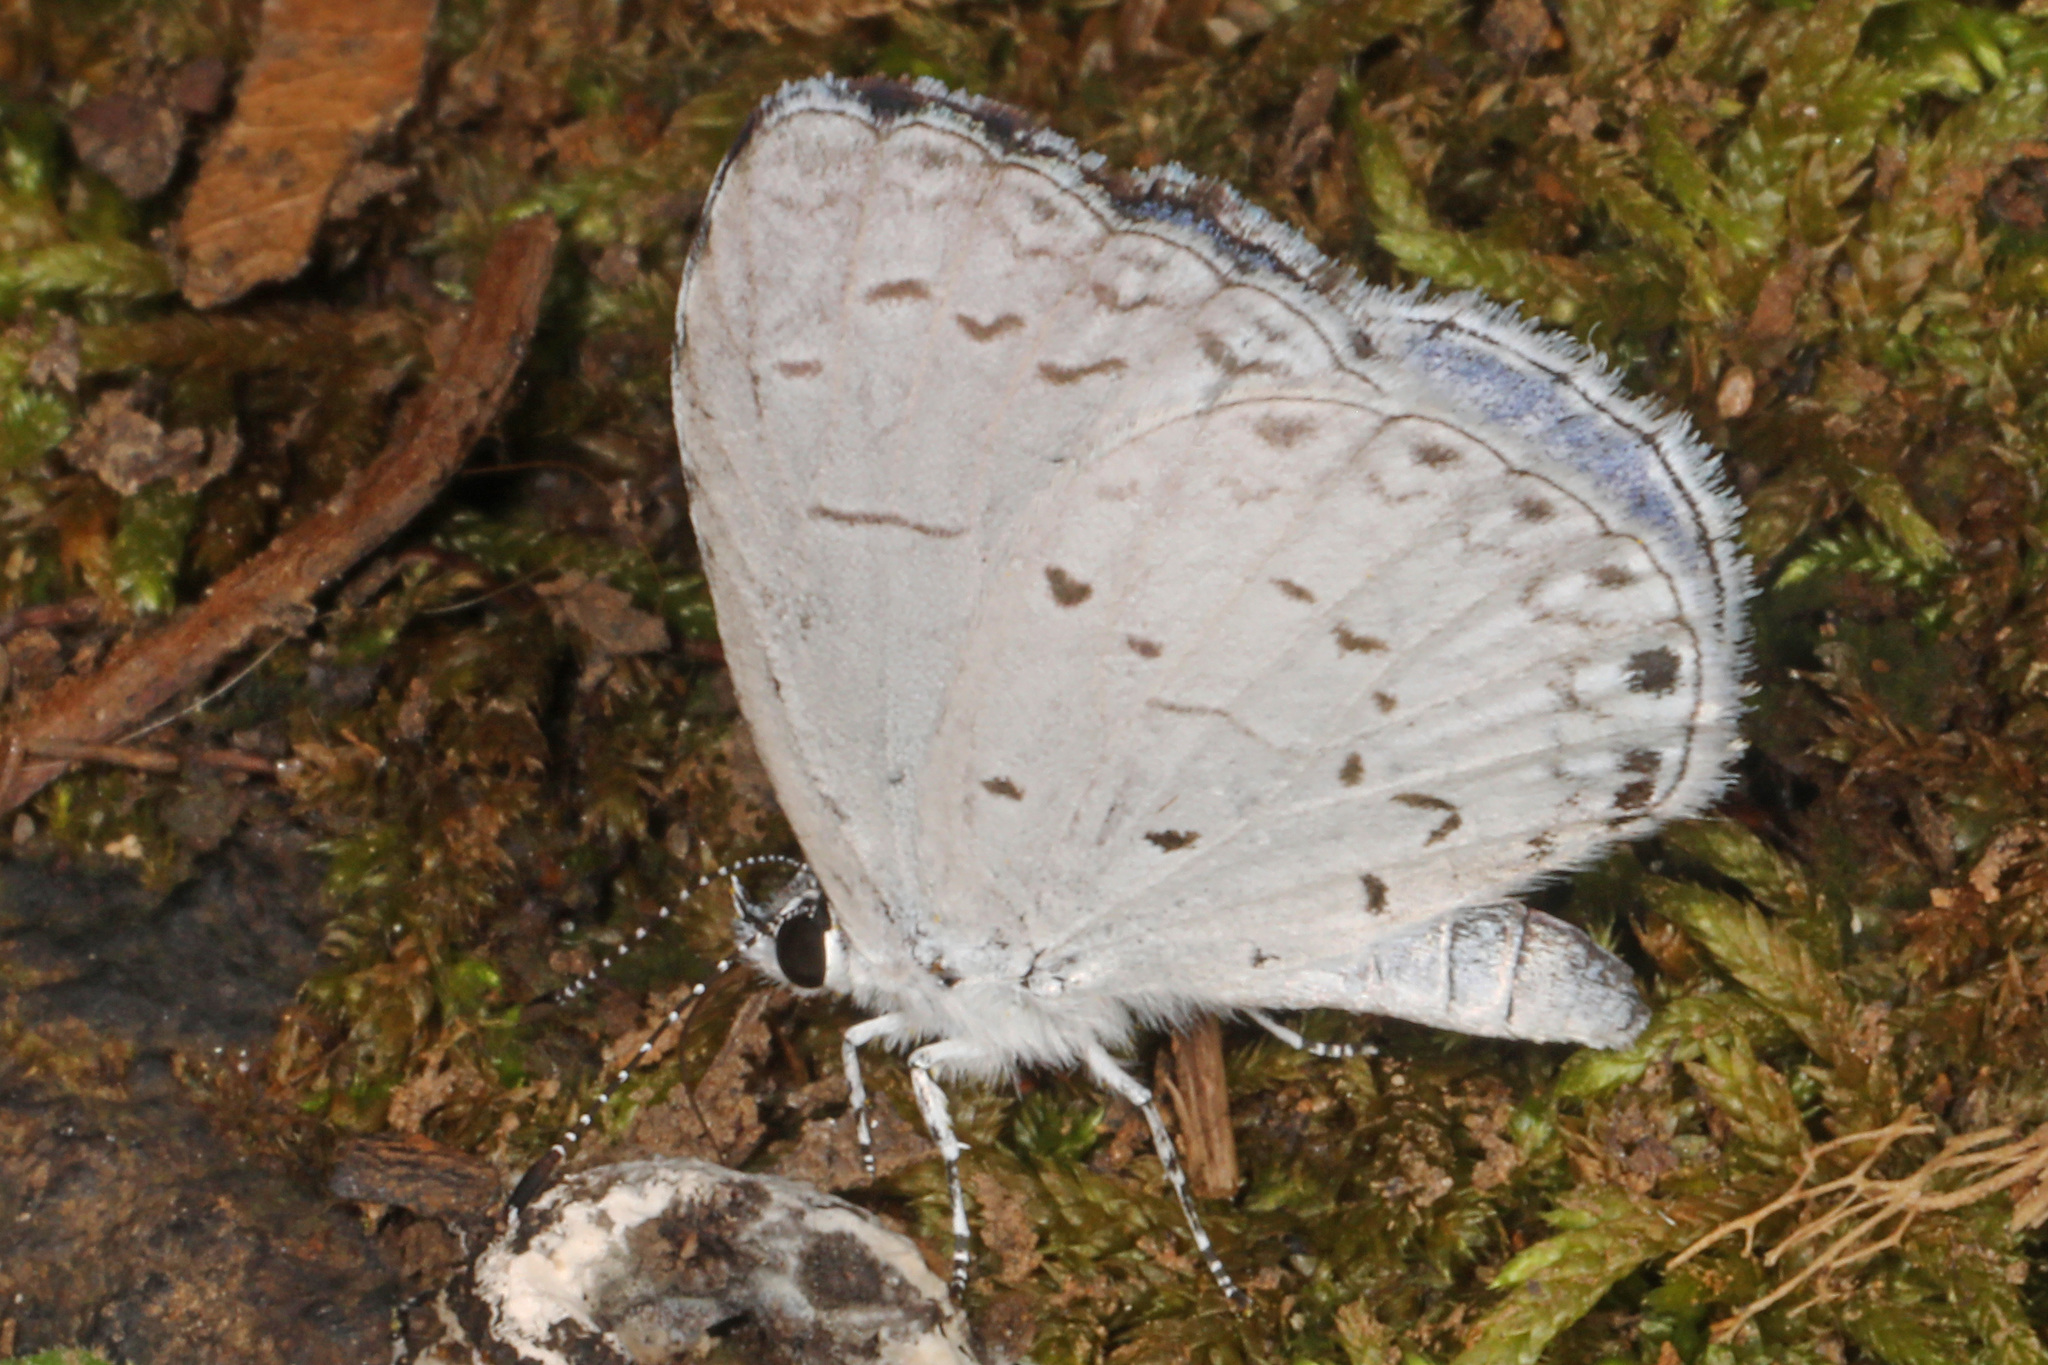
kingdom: Animalia
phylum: Arthropoda
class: Insecta
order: Lepidoptera
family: Lycaenidae
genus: Cyaniris
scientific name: Cyaniris neglecta
